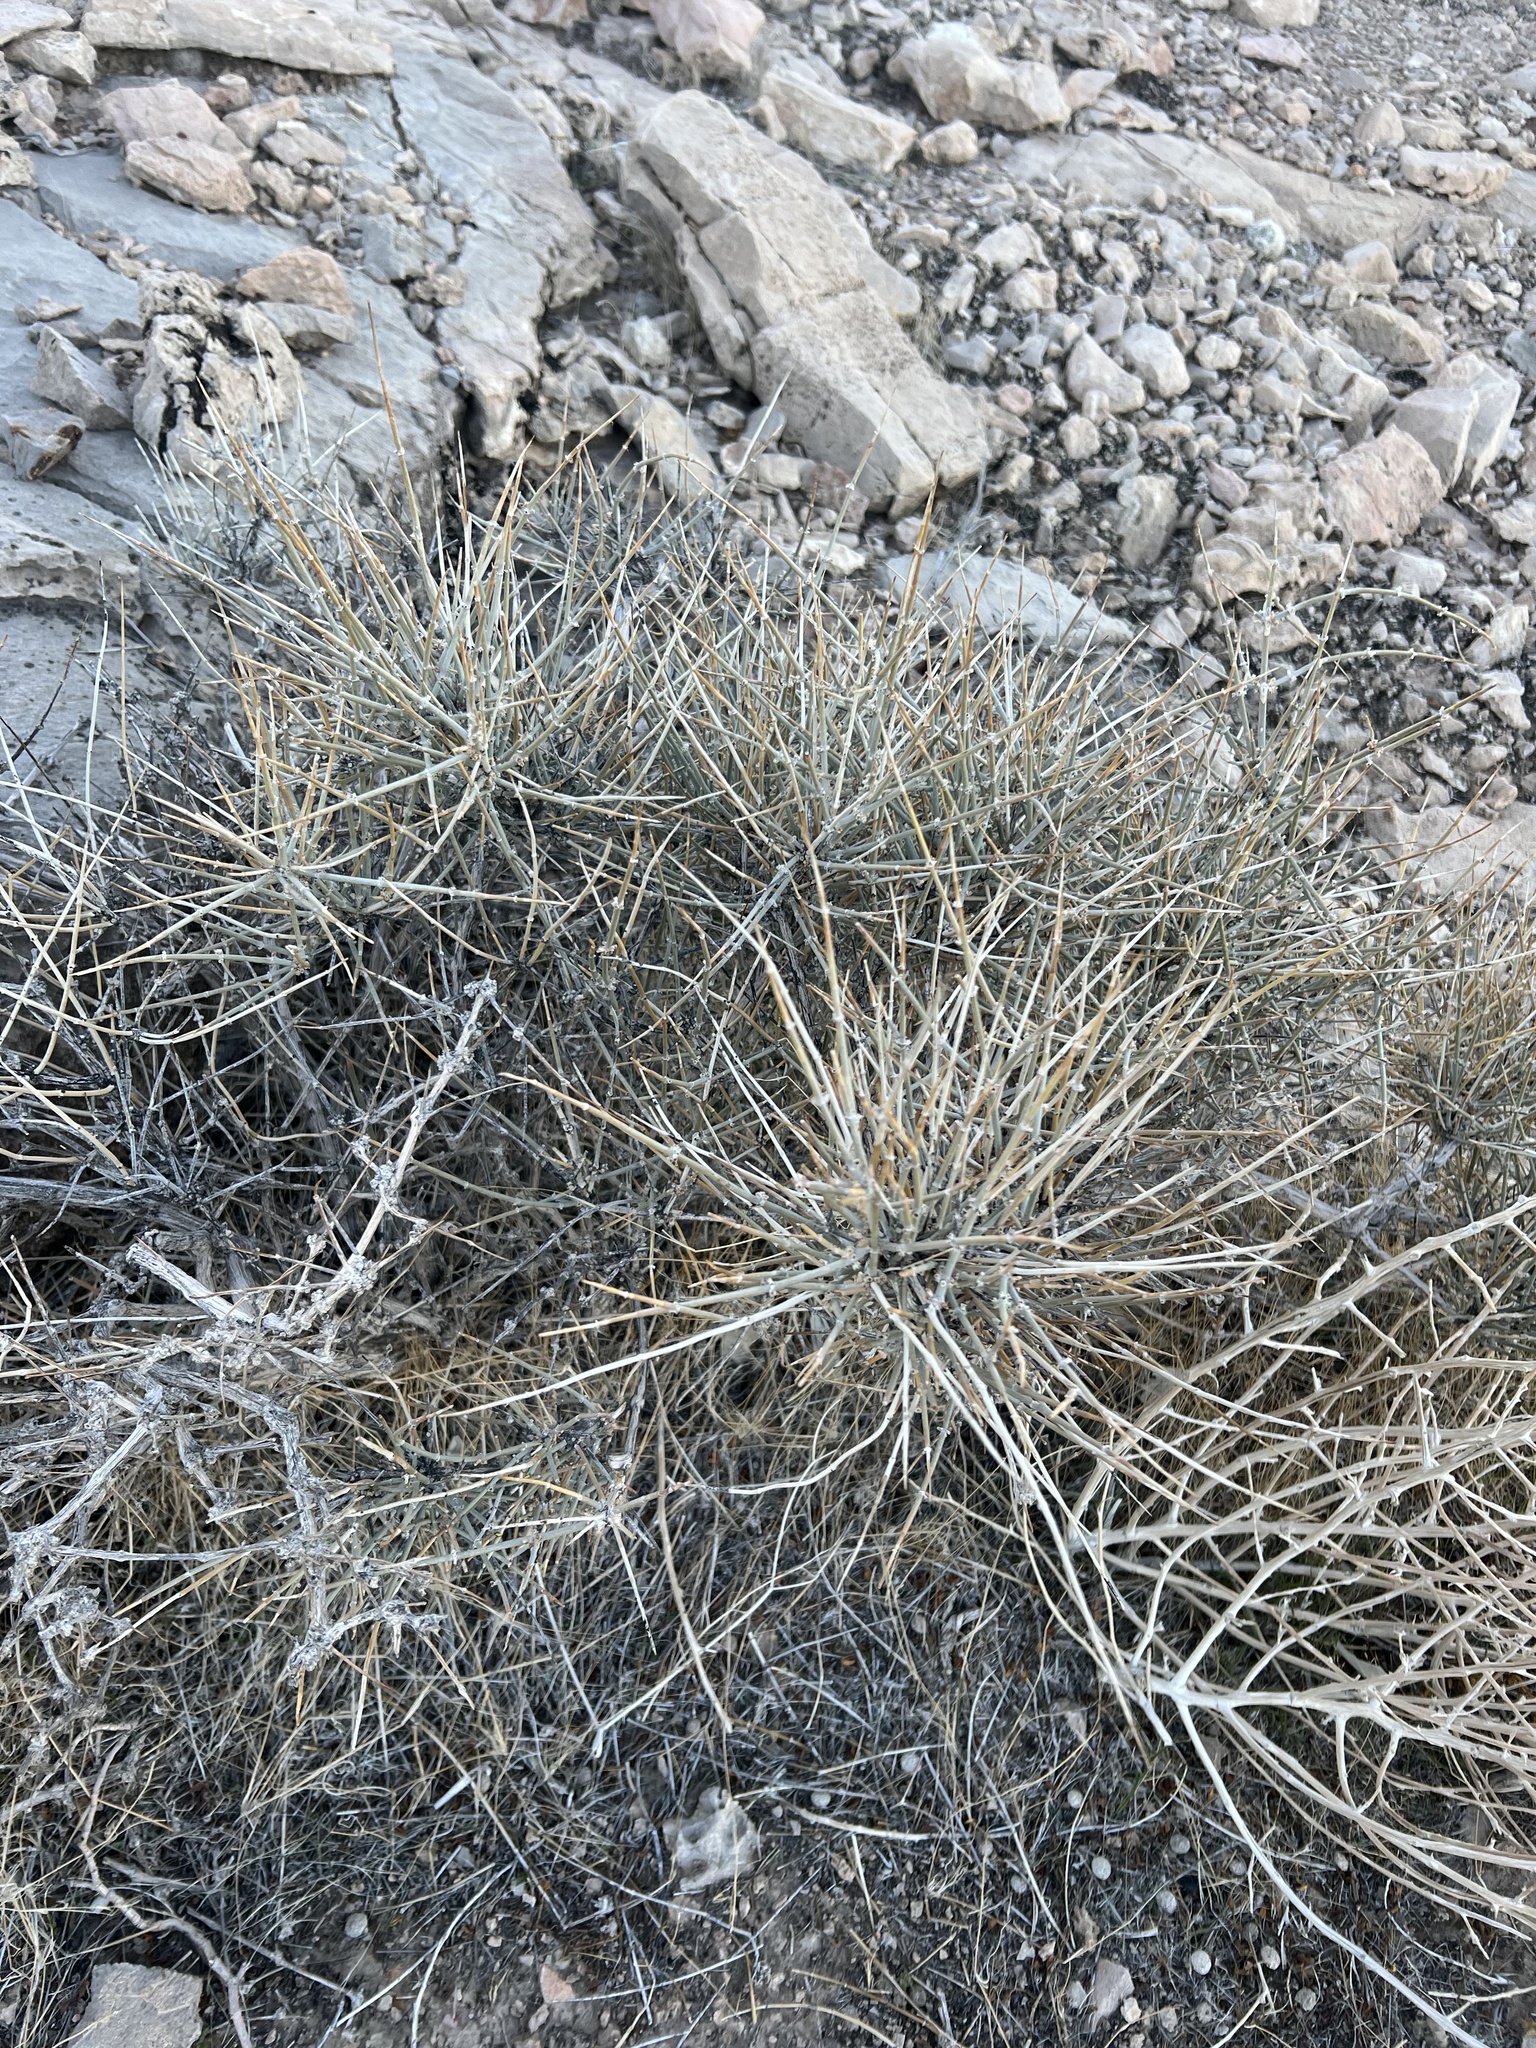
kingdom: Plantae
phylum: Tracheophyta
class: Gnetopsida
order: Ephedrales
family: Ephedraceae
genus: Ephedra
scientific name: Ephedra nevadensis
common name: Gray ephedra
